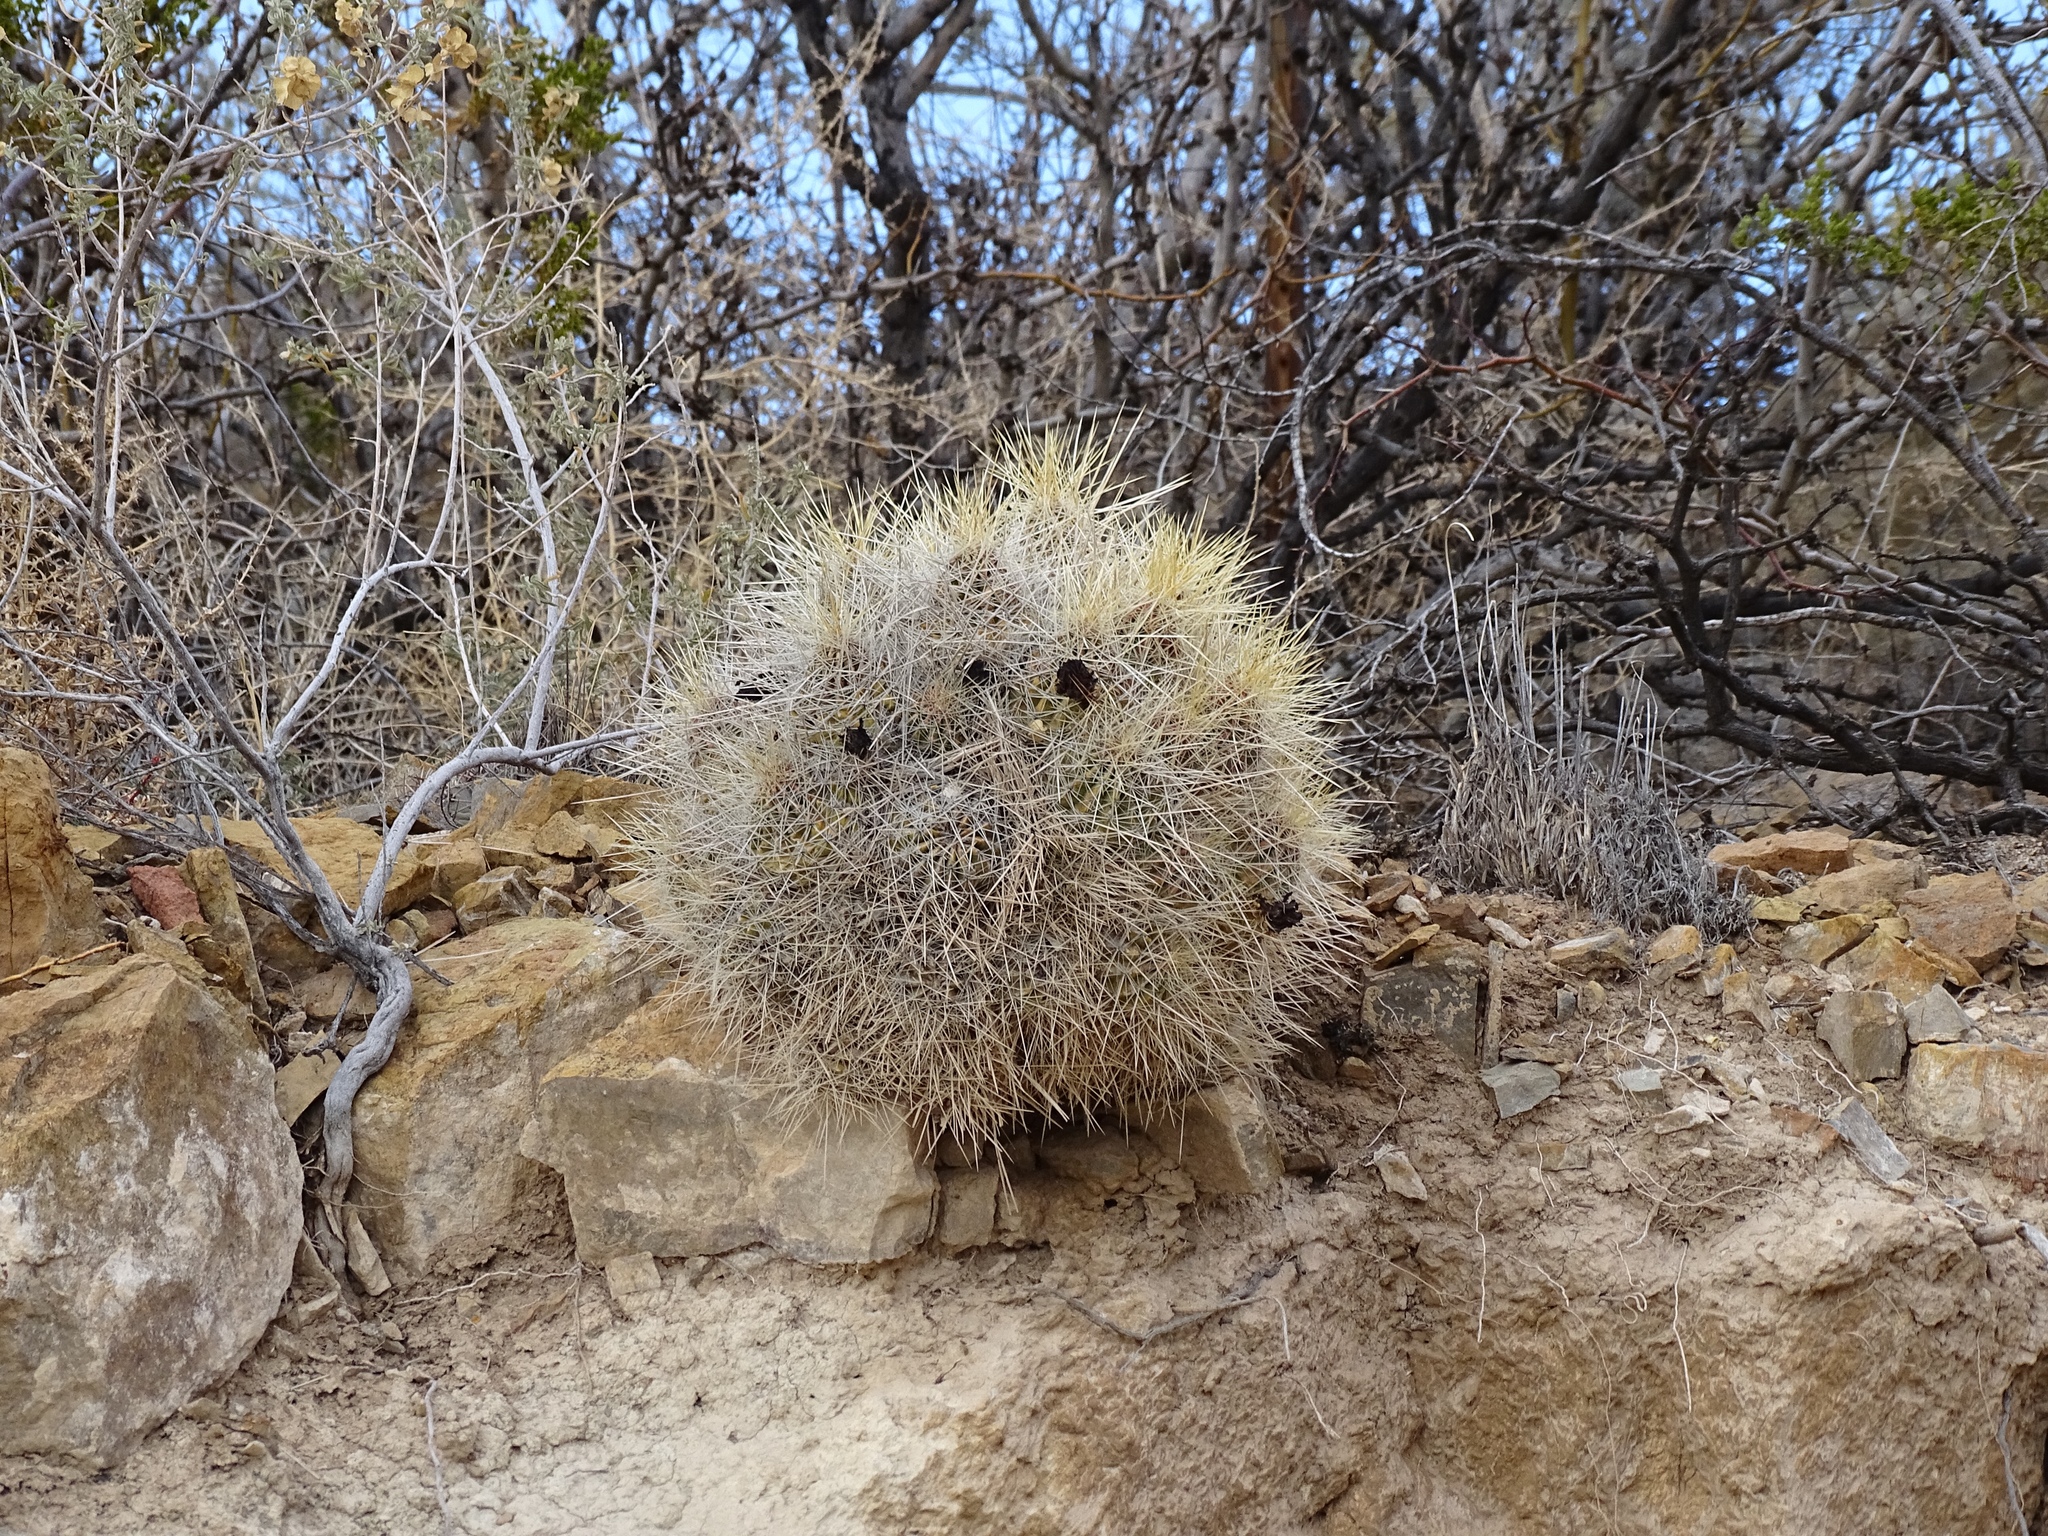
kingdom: Plantae
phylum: Tracheophyta
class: Magnoliopsida
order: Caryophyllales
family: Cactaceae
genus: Echinocereus
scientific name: Echinocereus stramineus
